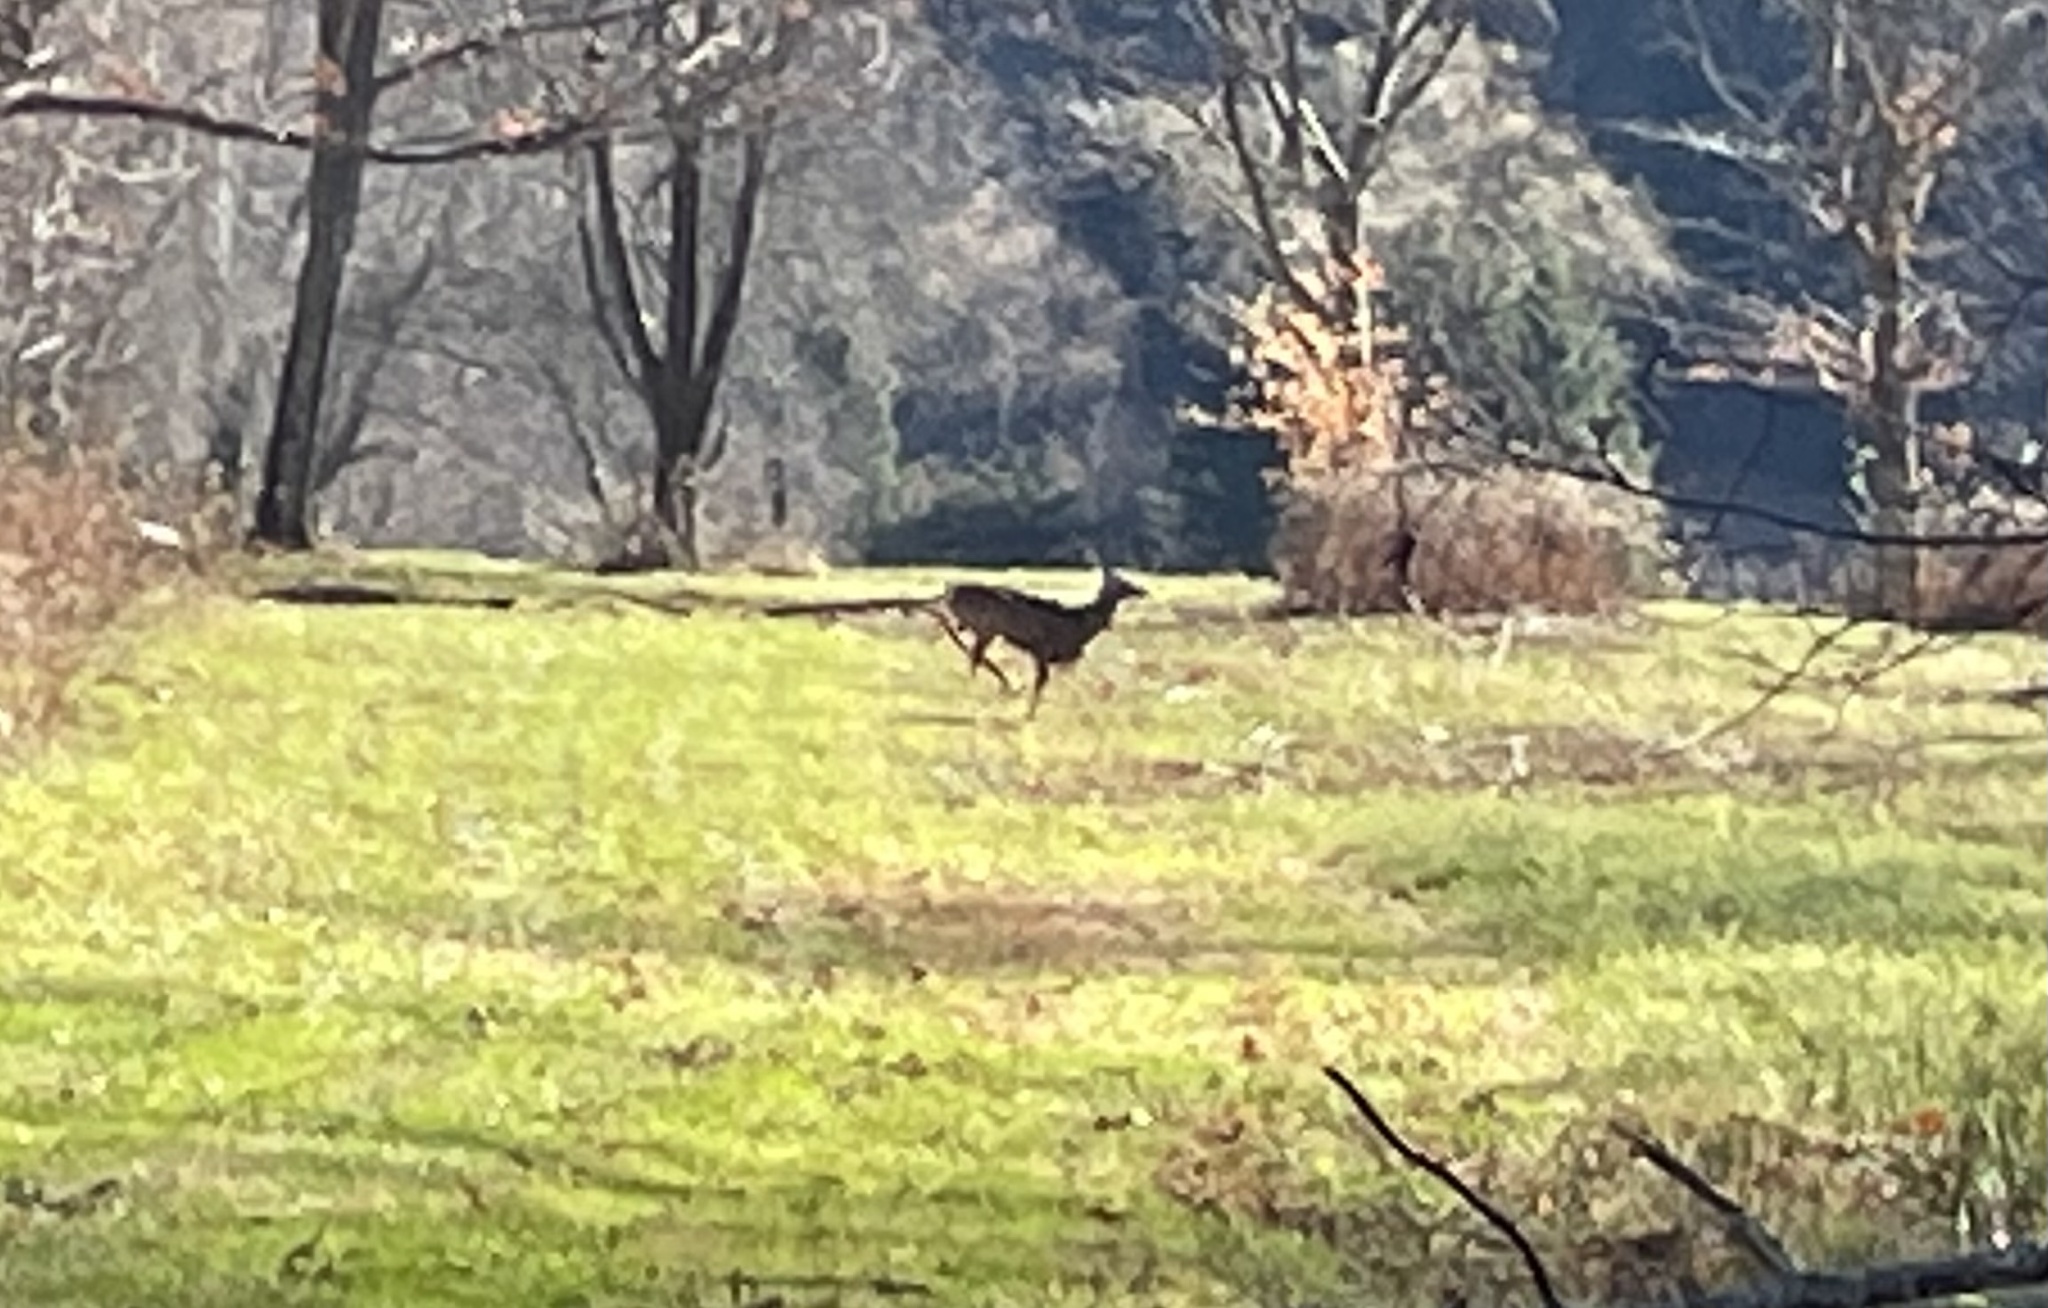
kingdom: Animalia
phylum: Chordata
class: Mammalia
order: Artiodactyla
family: Cervidae
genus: Odocoileus
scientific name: Odocoileus virginianus
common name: White-tailed deer
